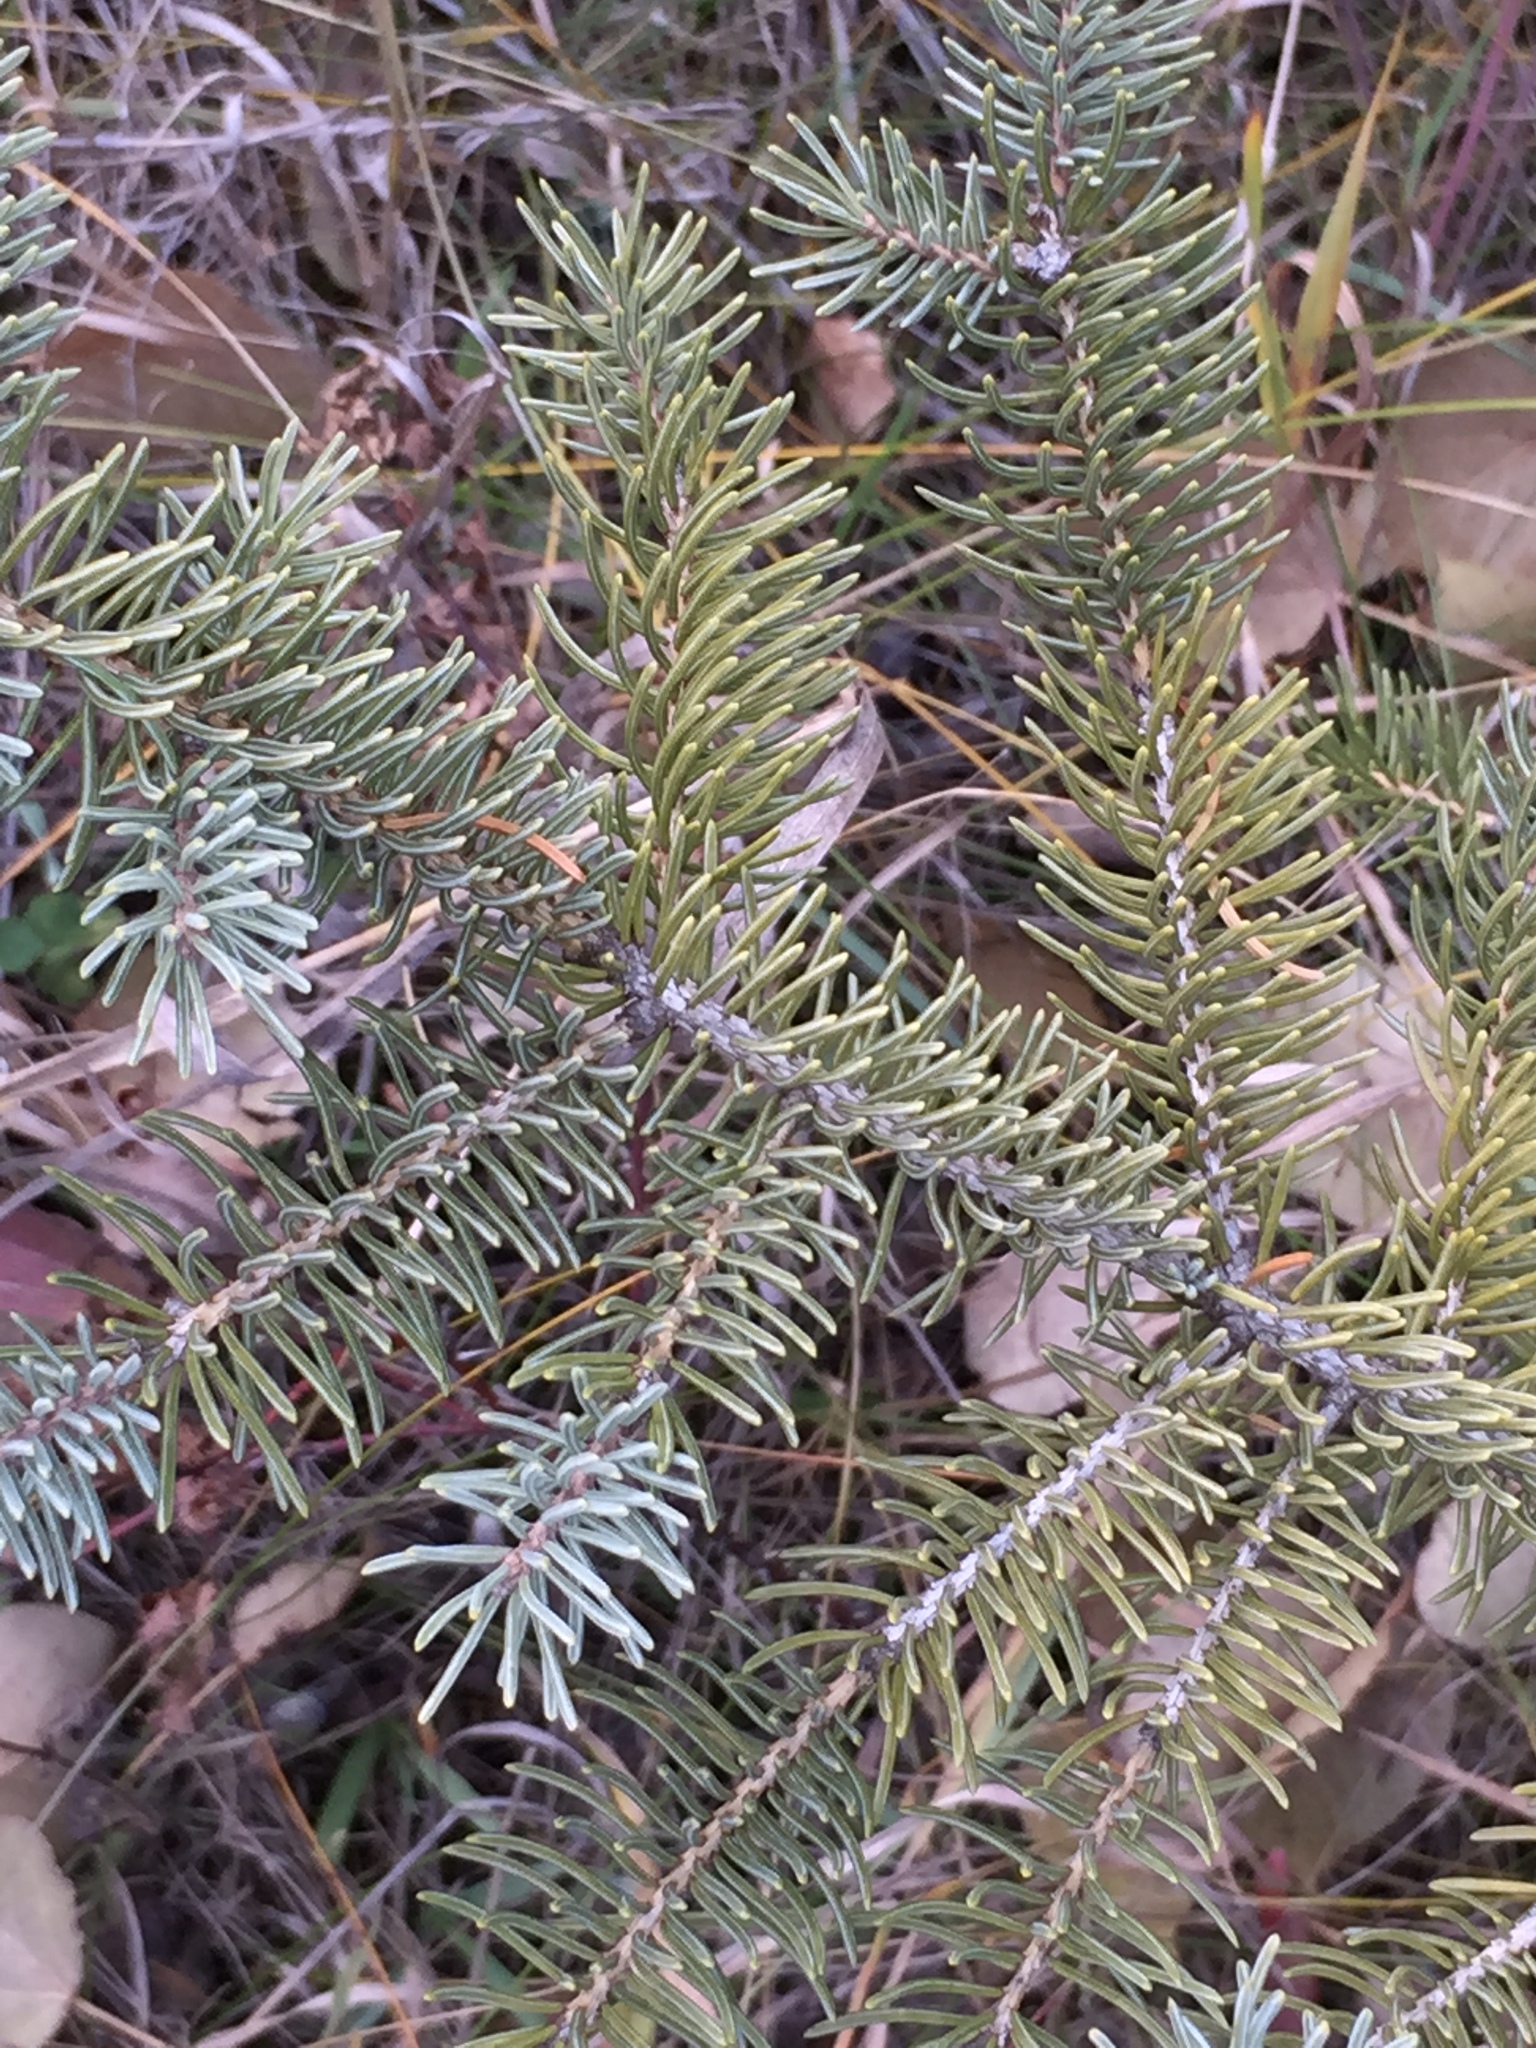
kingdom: Plantae
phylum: Tracheophyta
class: Pinopsida
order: Pinales
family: Pinaceae
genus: Picea
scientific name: Picea glauca
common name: White spruce
